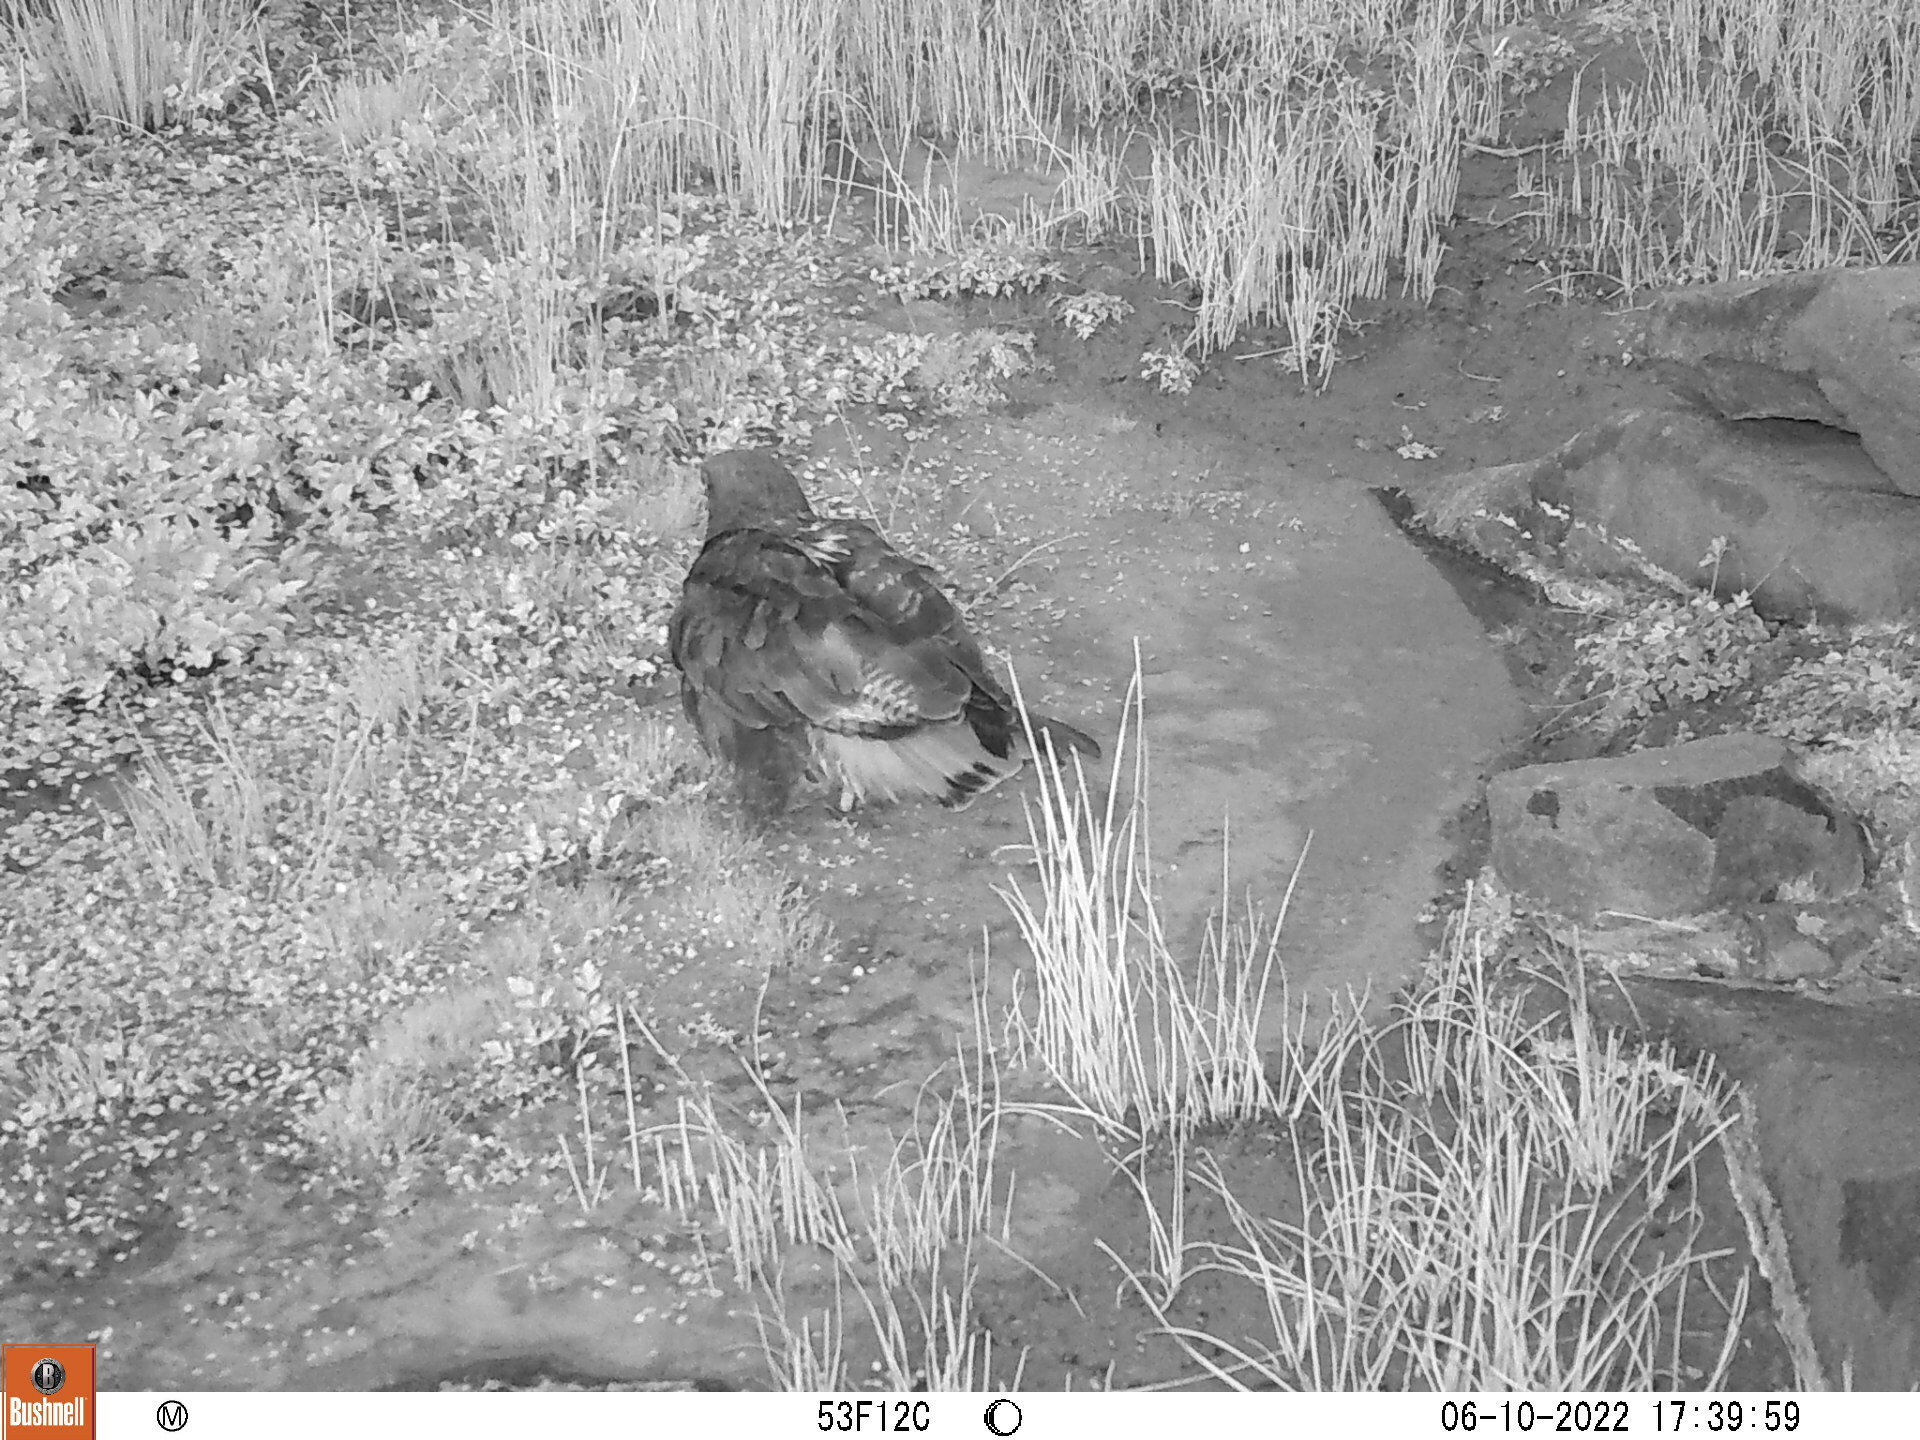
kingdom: Animalia
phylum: Chordata
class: Aves
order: Accipitriformes
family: Accipitridae
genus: Buteo
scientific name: Buteo rufofuscus
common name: Jackal buzzard
